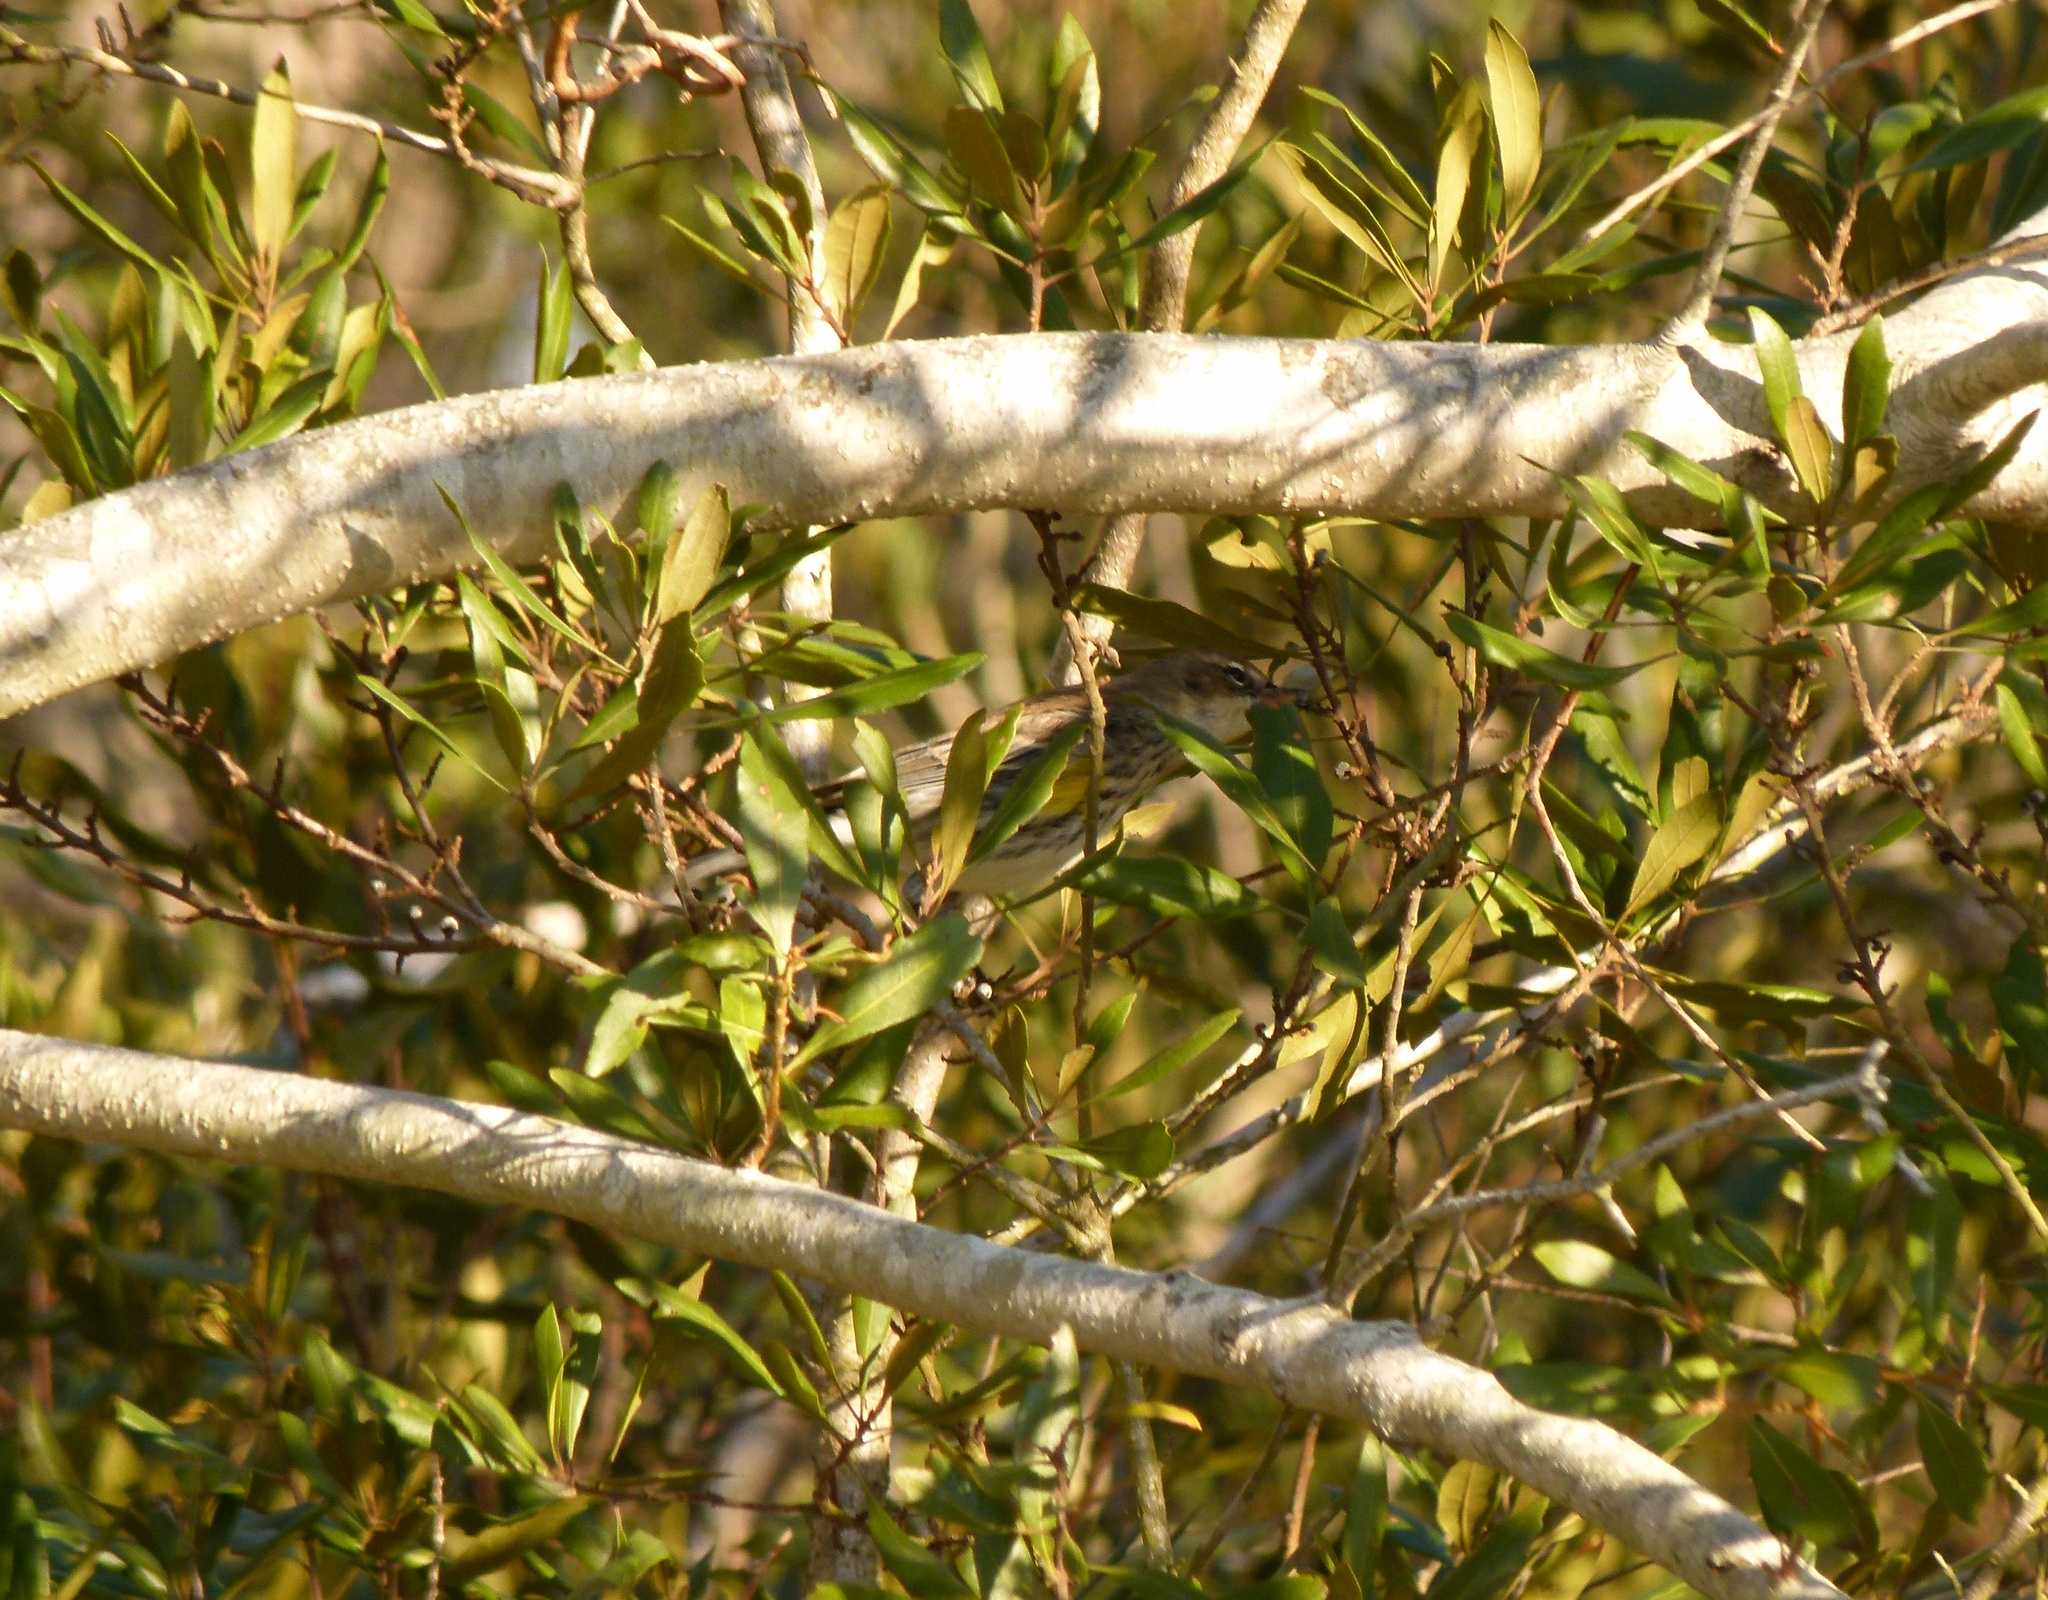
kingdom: Animalia
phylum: Chordata
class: Aves
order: Passeriformes
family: Parulidae
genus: Setophaga
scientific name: Setophaga coronata
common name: Myrtle warbler
